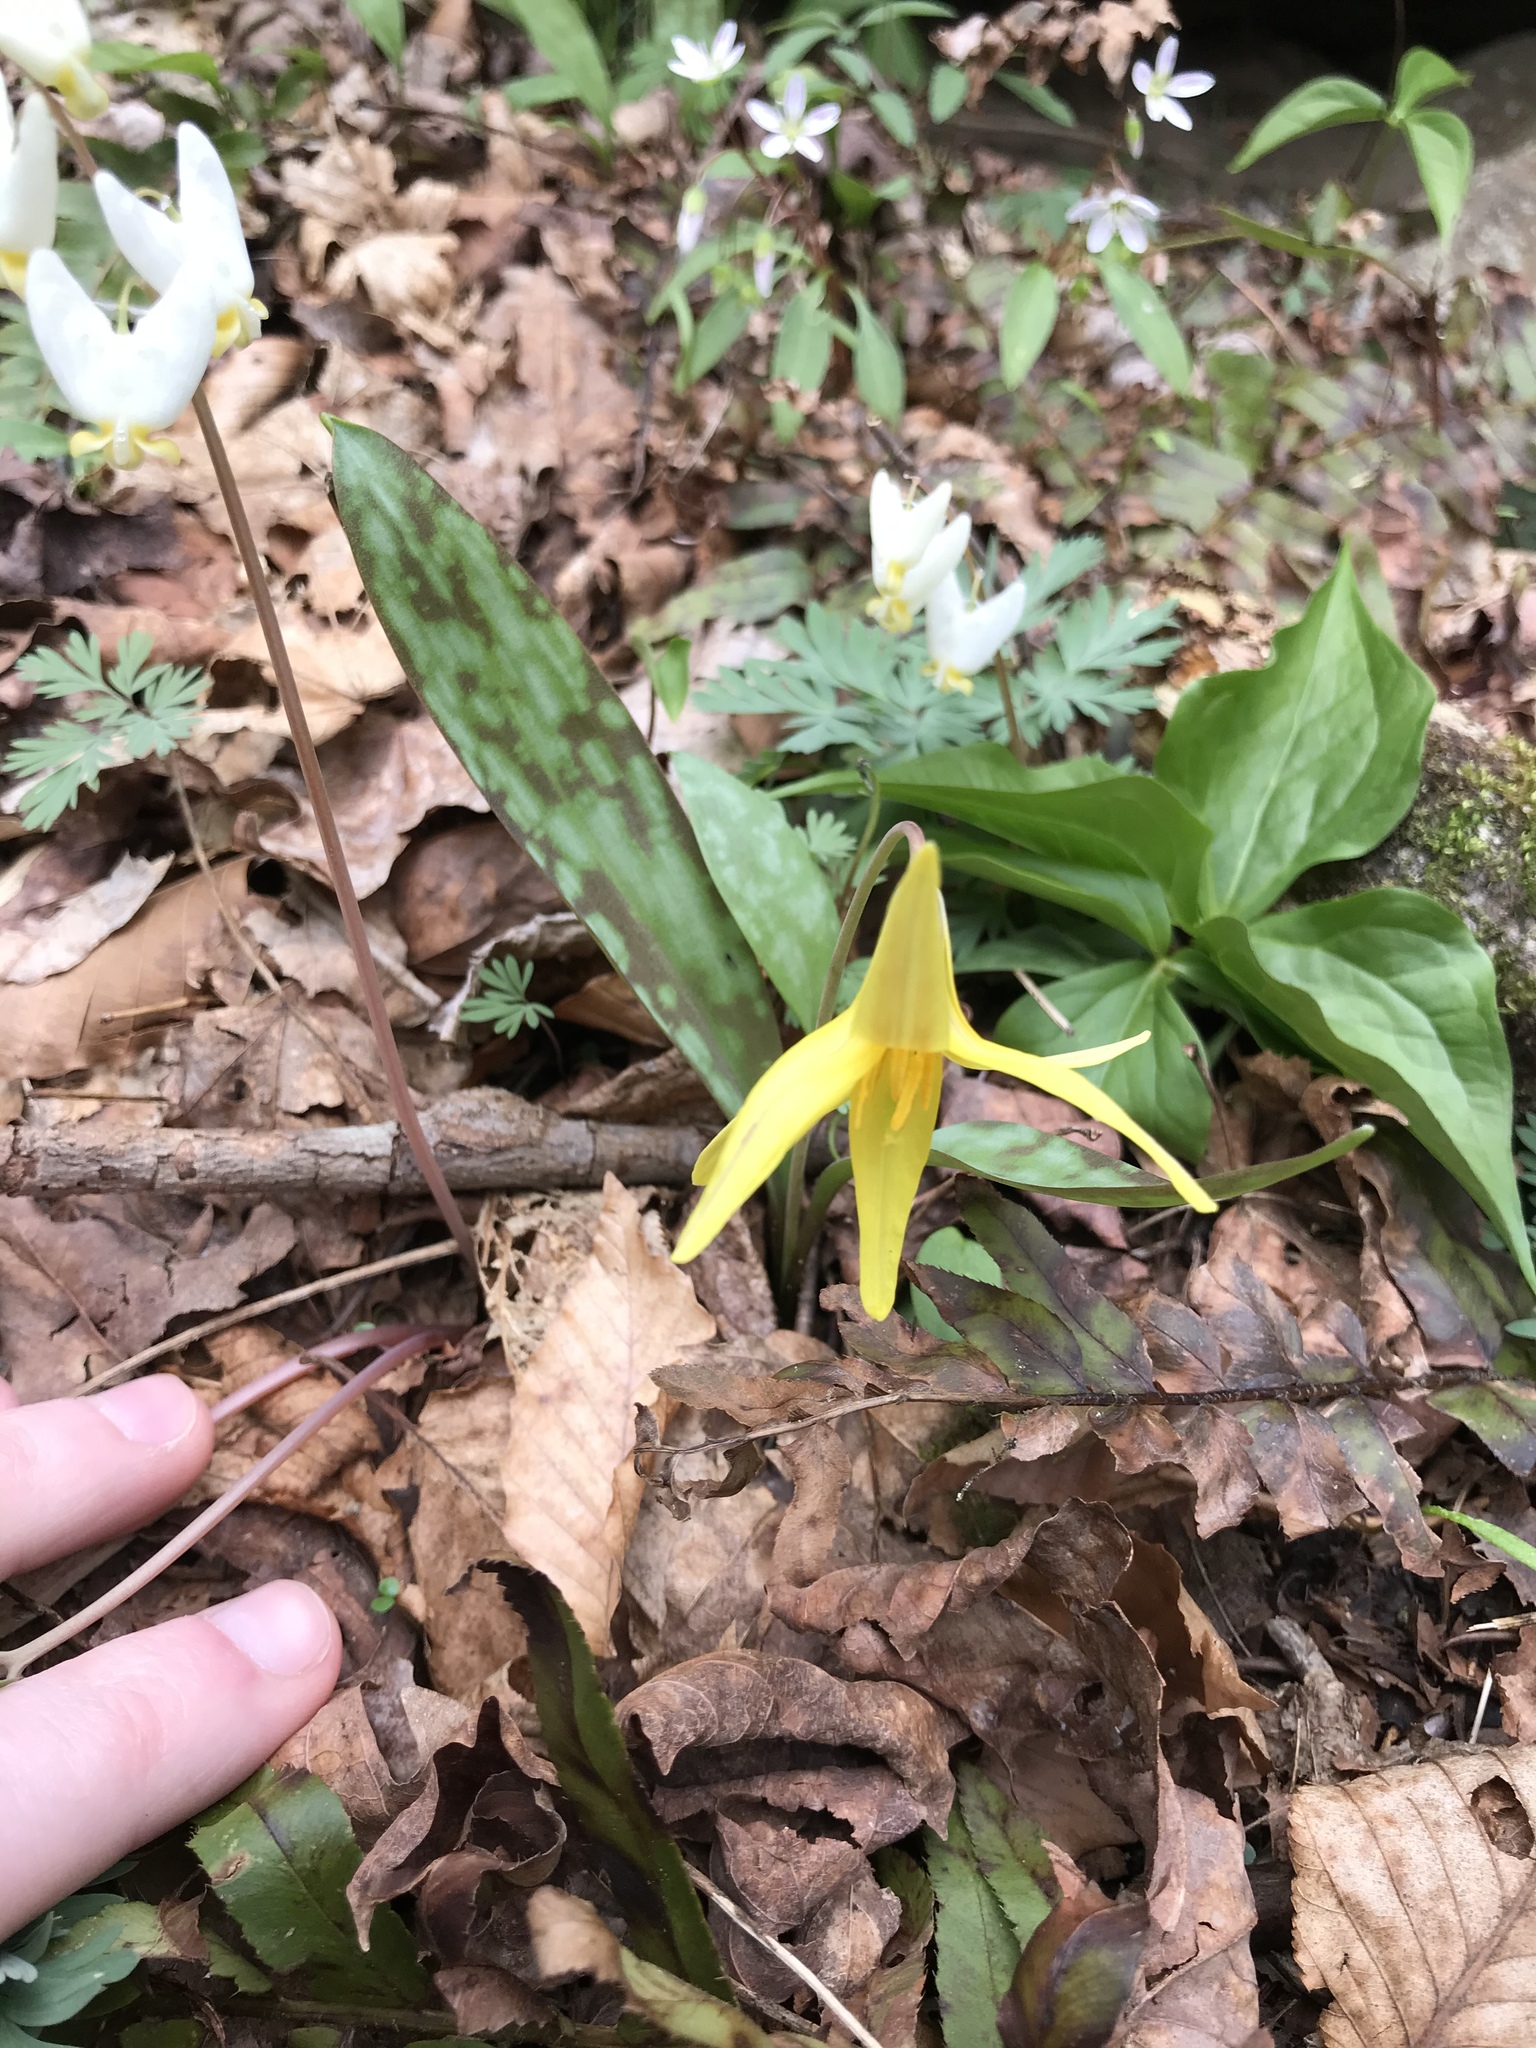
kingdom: Plantae
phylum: Tracheophyta
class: Liliopsida
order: Liliales
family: Liliaceae
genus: Erythronium
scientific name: Erythronium americanum
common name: Yellow adder's-tongue
